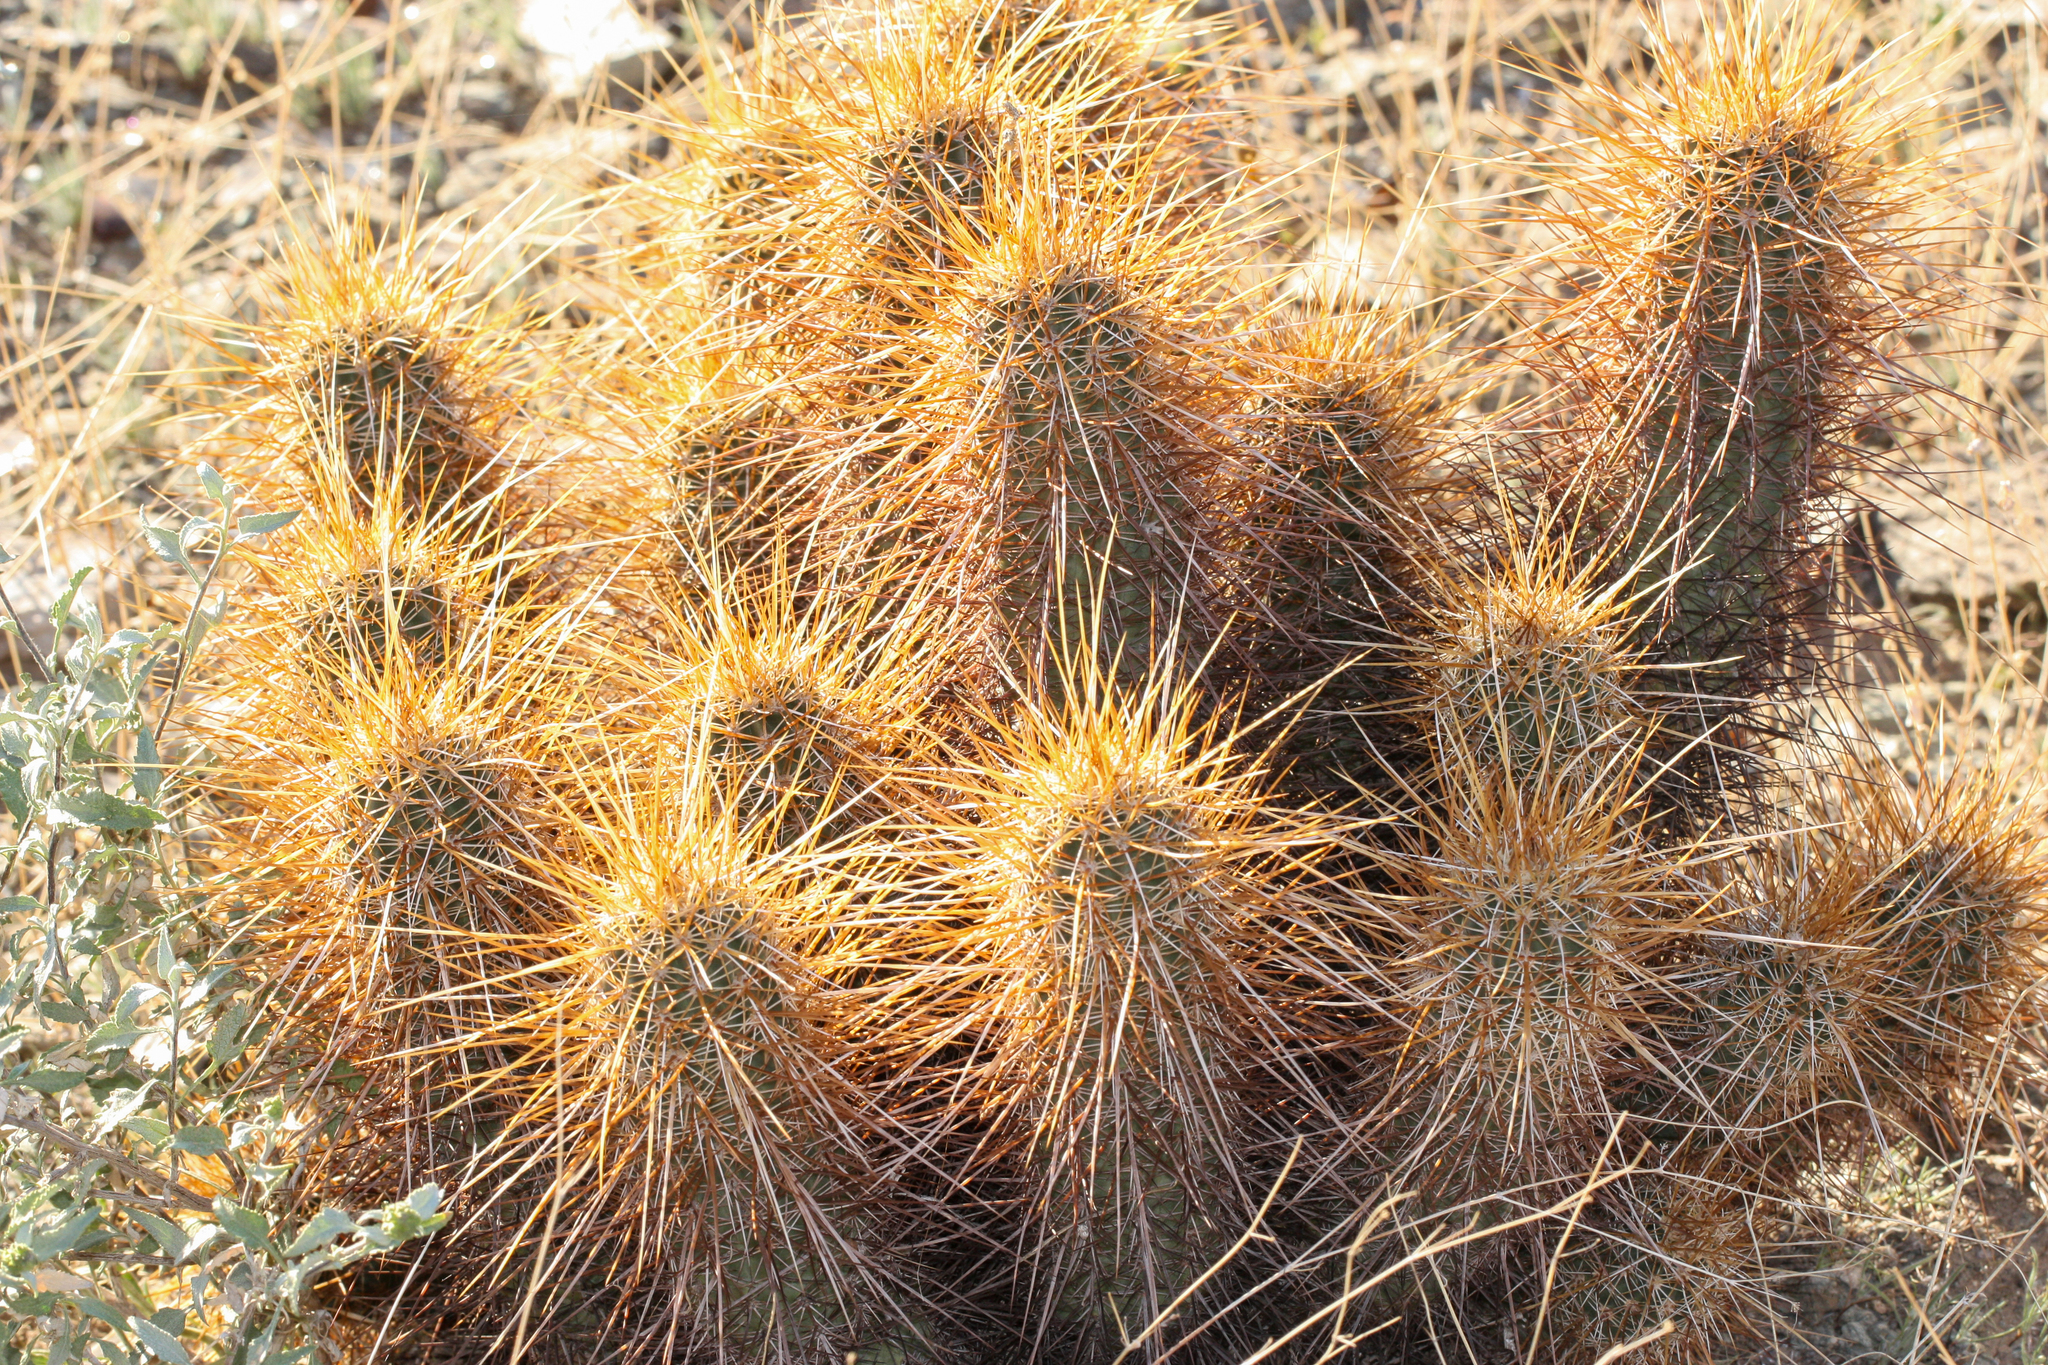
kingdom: Plantae
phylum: Tracheophyta
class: Magnoliopsida
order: Caryophyllales
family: Cactaceae
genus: Echinocereus
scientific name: Echinocereus engelmannii
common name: Engelmann's hedgehog cactus
